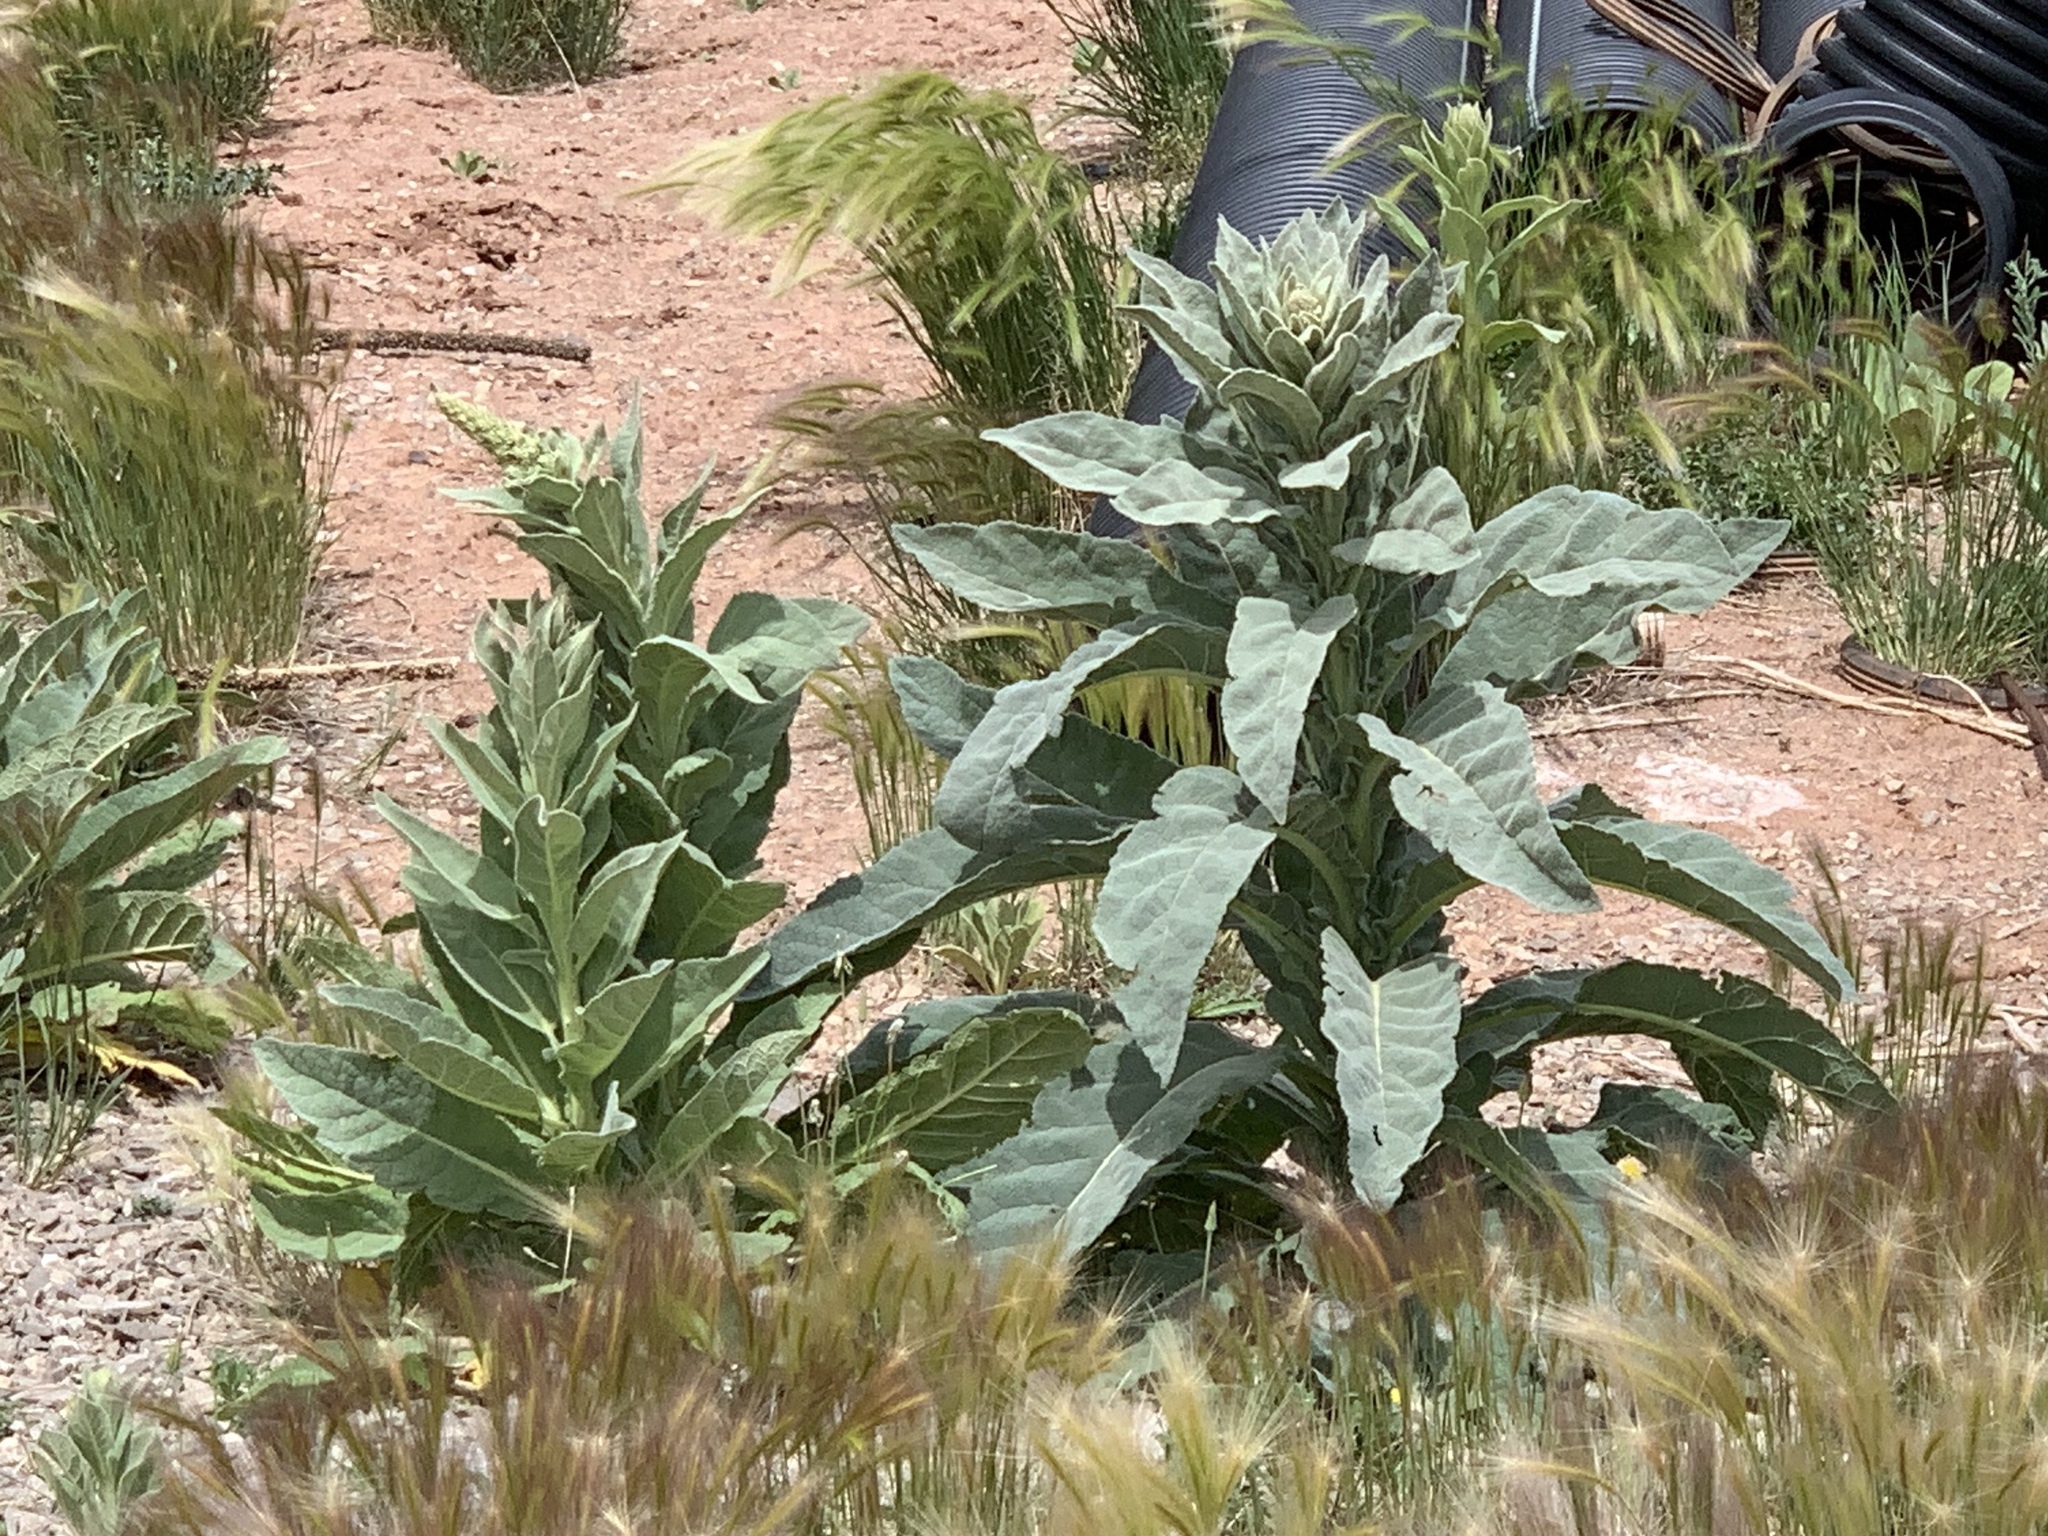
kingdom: Plantae
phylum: Tracheophyta
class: Magnoliopsida
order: Lamiales
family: Scrophulariaceae
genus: Verbascum
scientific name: Verbascum thapsus
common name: Common mullein
